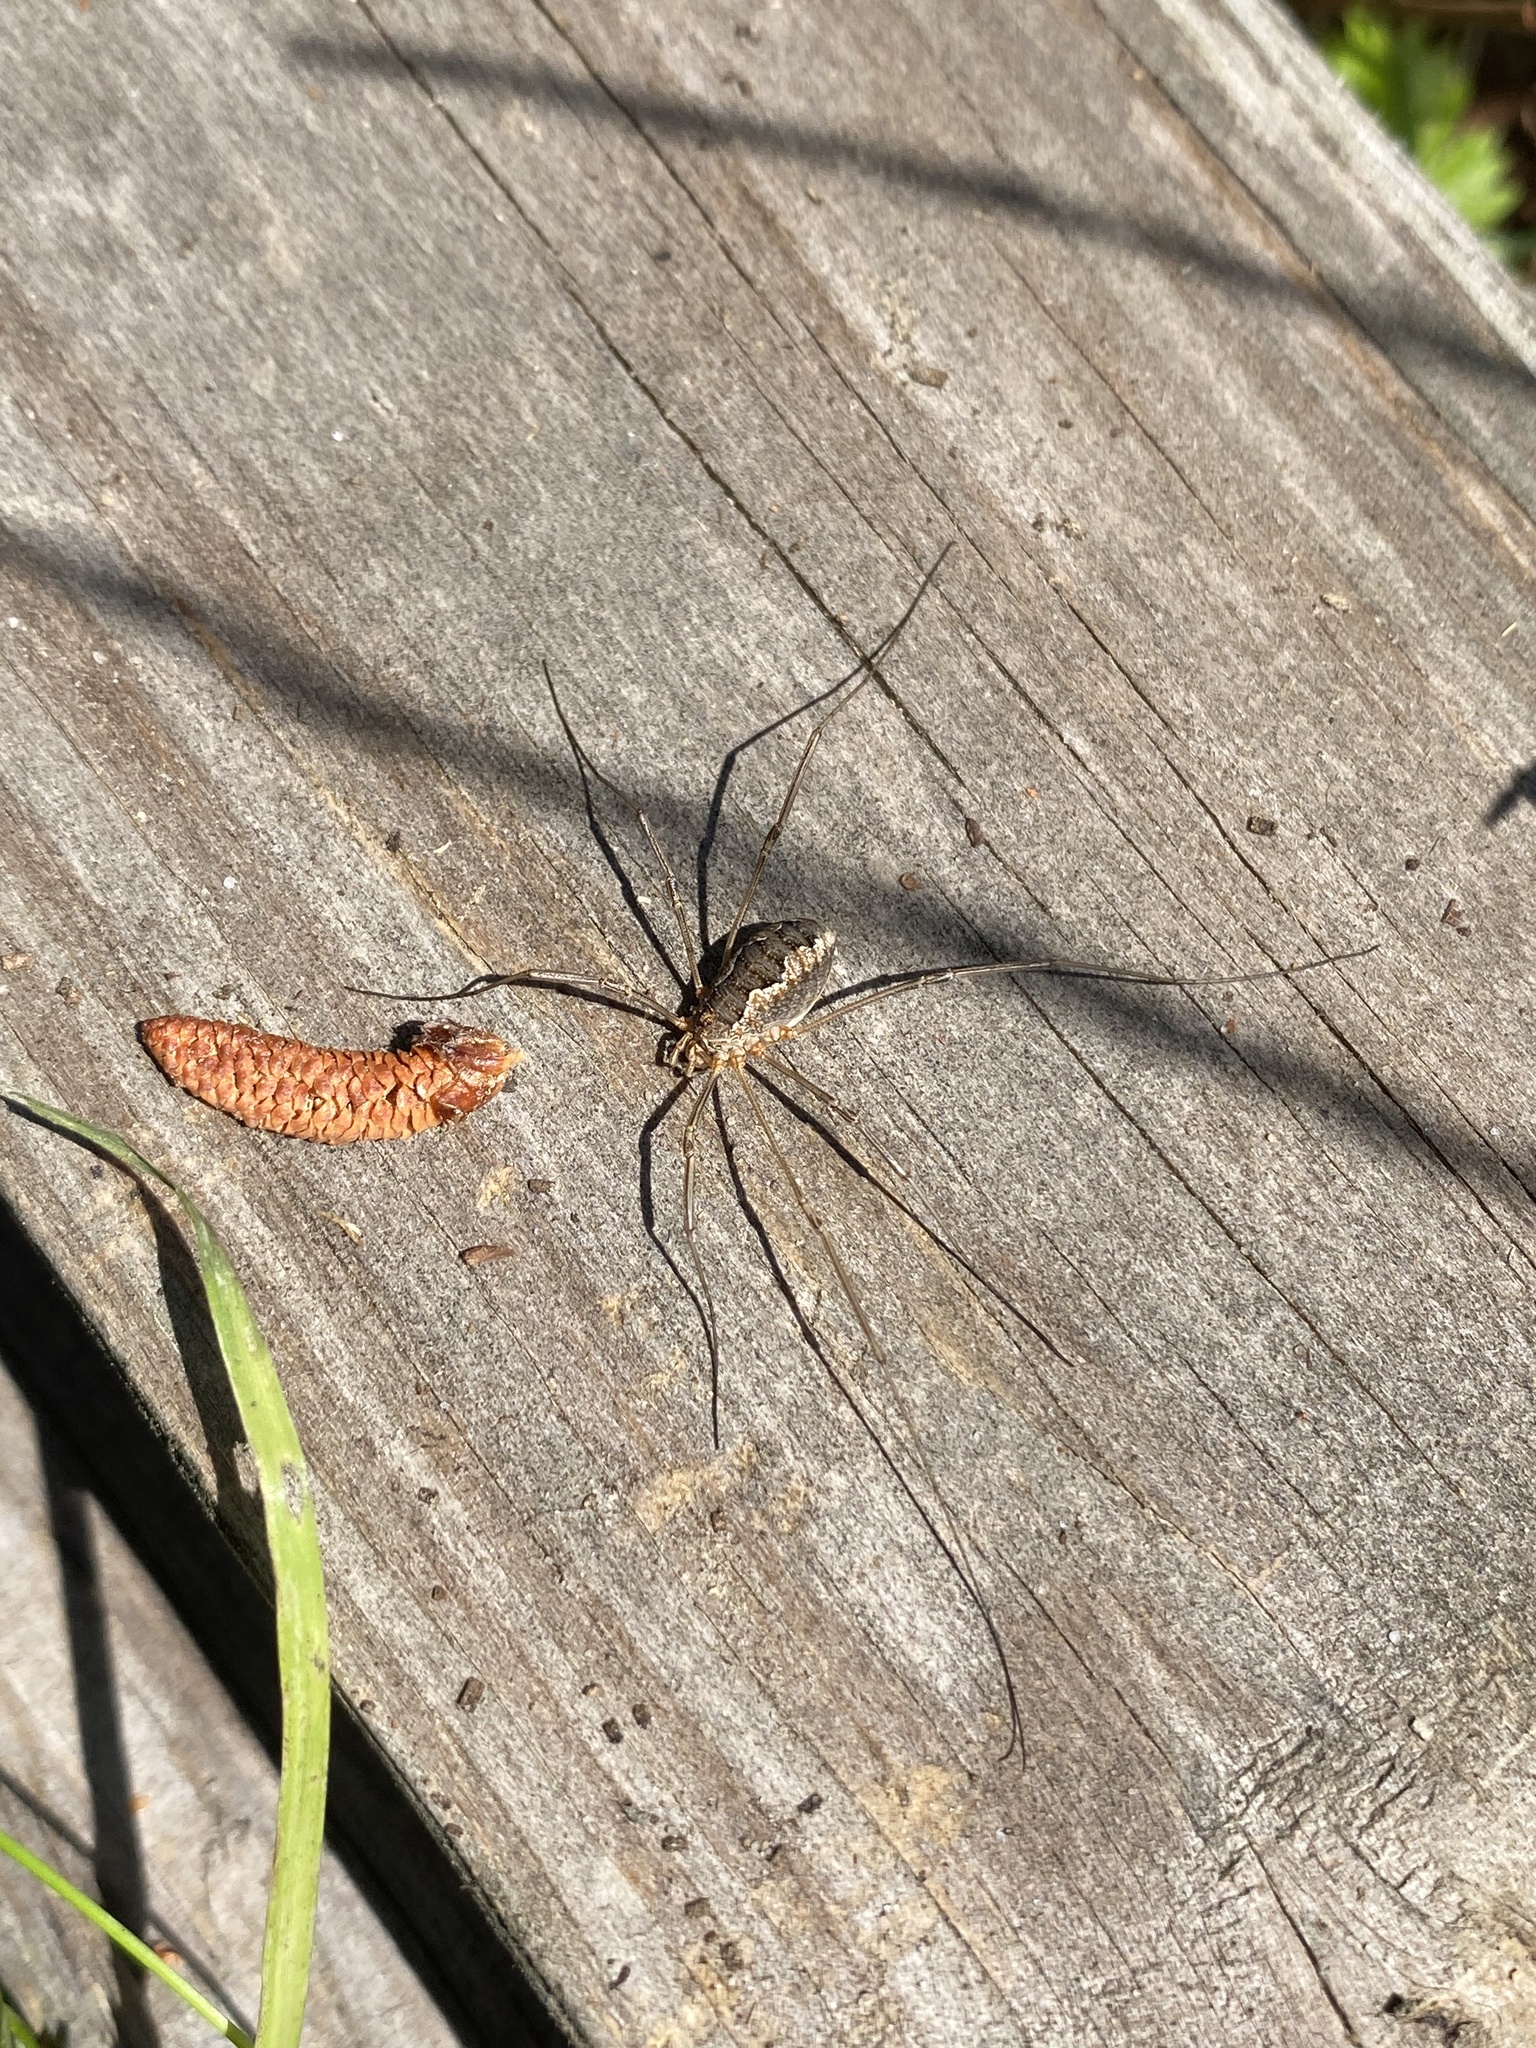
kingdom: Animalia
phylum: Arthropoda
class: Arachnida
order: Opiliones
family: Phalangiidae
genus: Phalangium
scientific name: Phalangium opilio
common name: Daddy longleg
